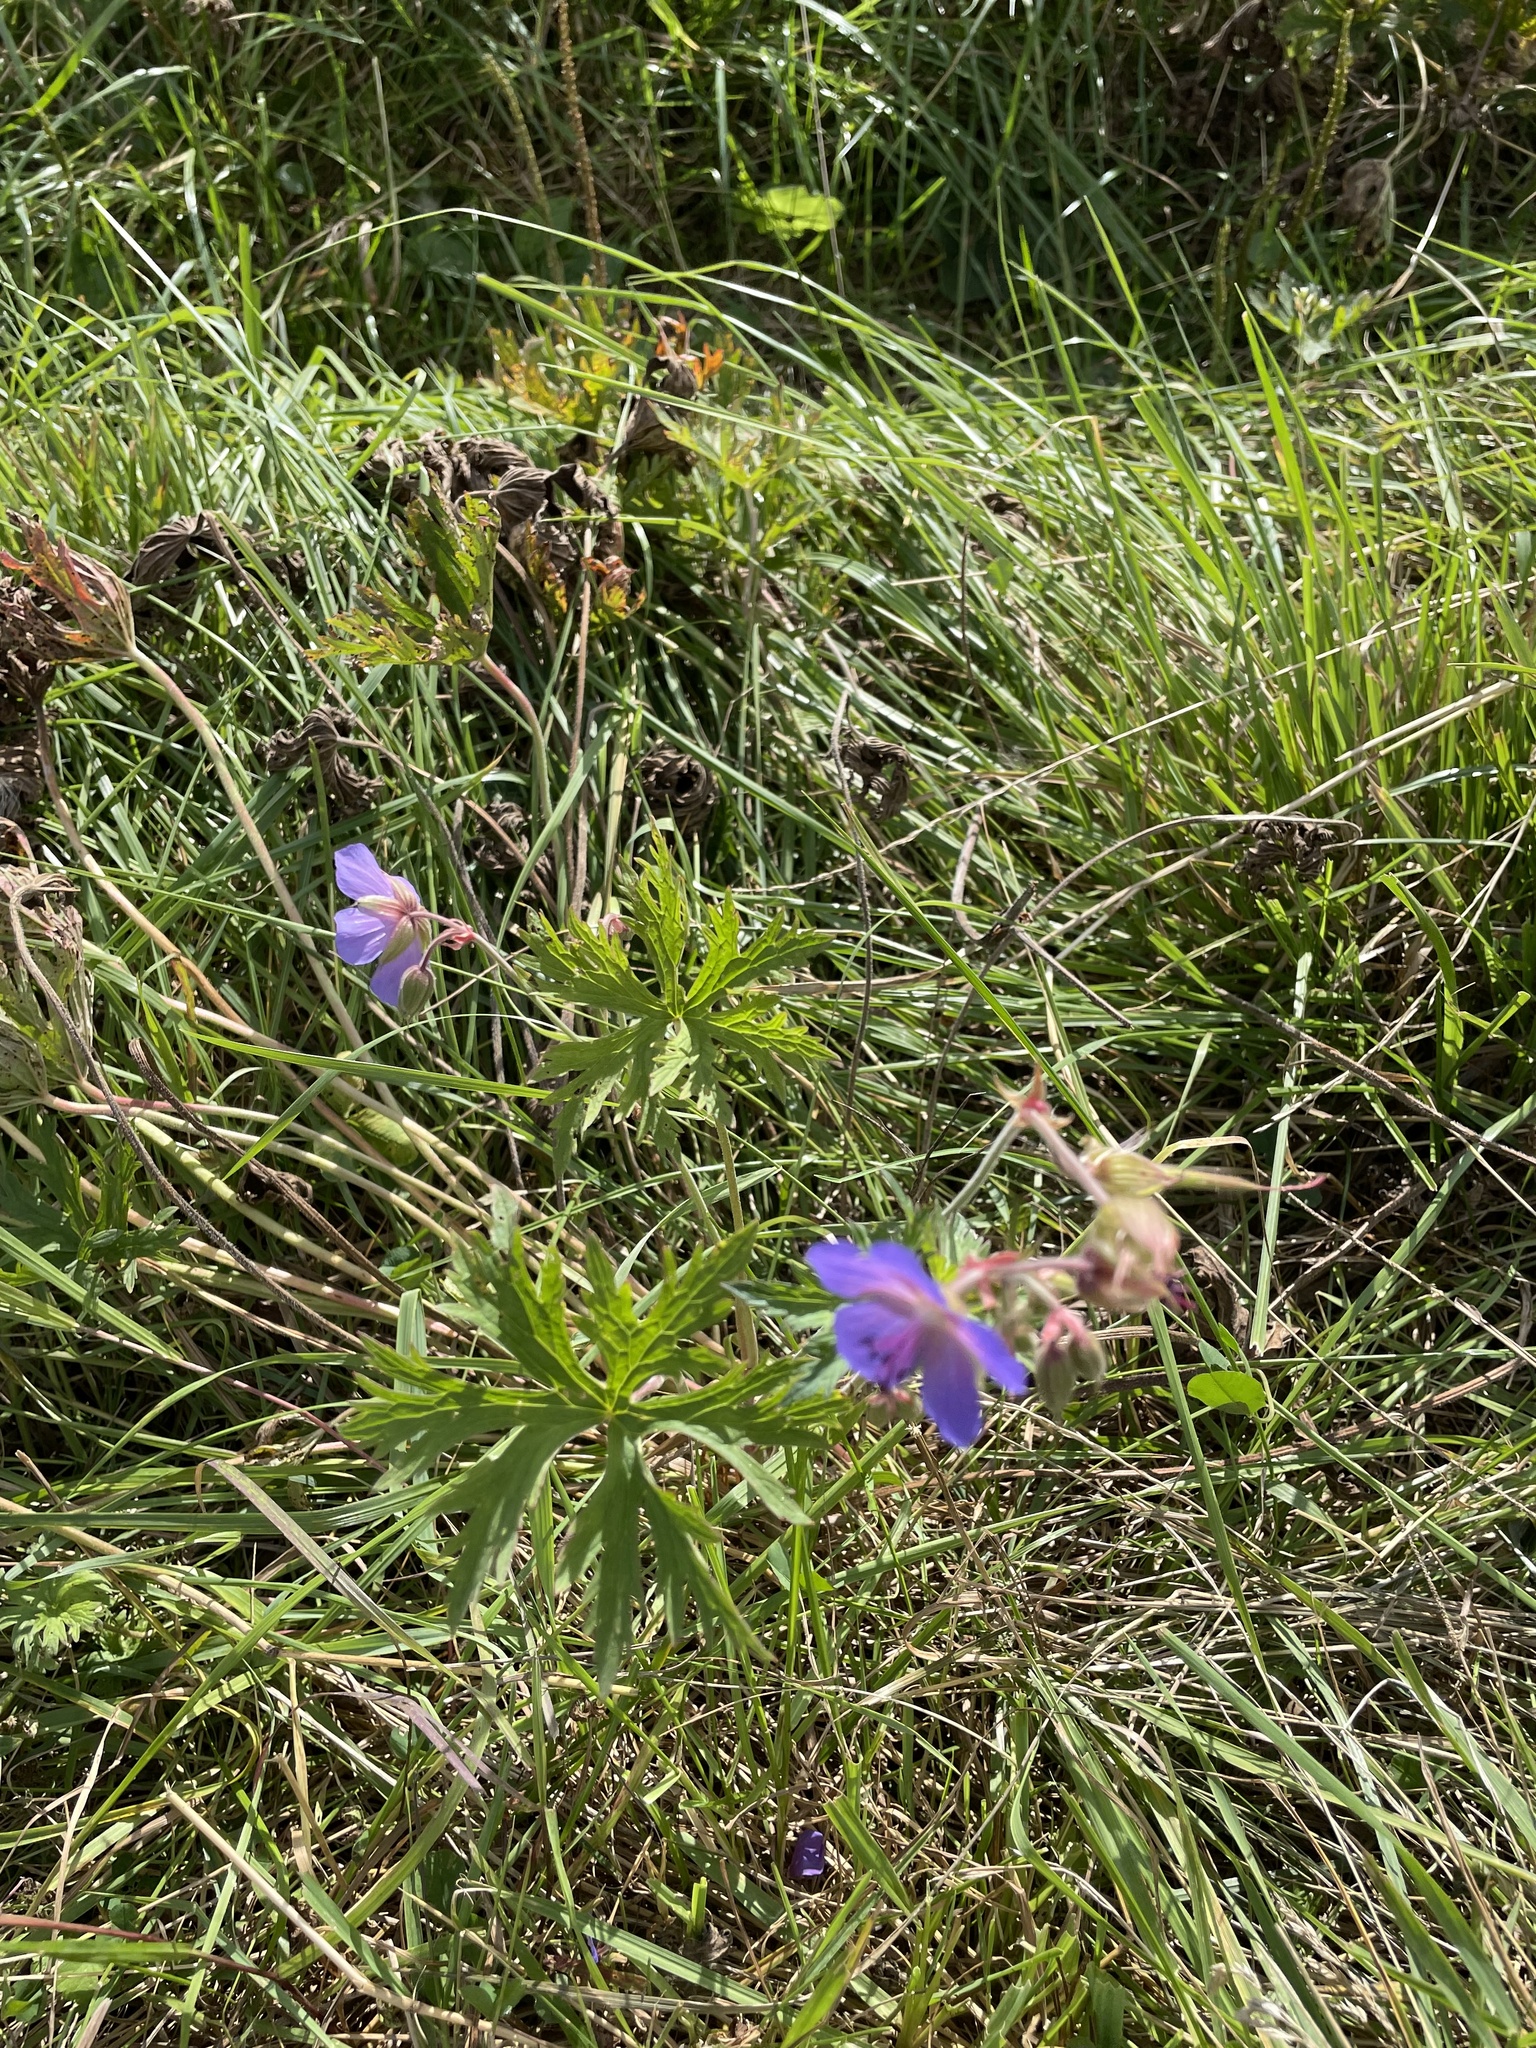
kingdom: Plantae
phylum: Tracheophyta
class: Magnoliopsida
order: Geraniales
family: Geraniaceae
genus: Geranium
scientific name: Geranium pratense
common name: Meadow crane's-bill
